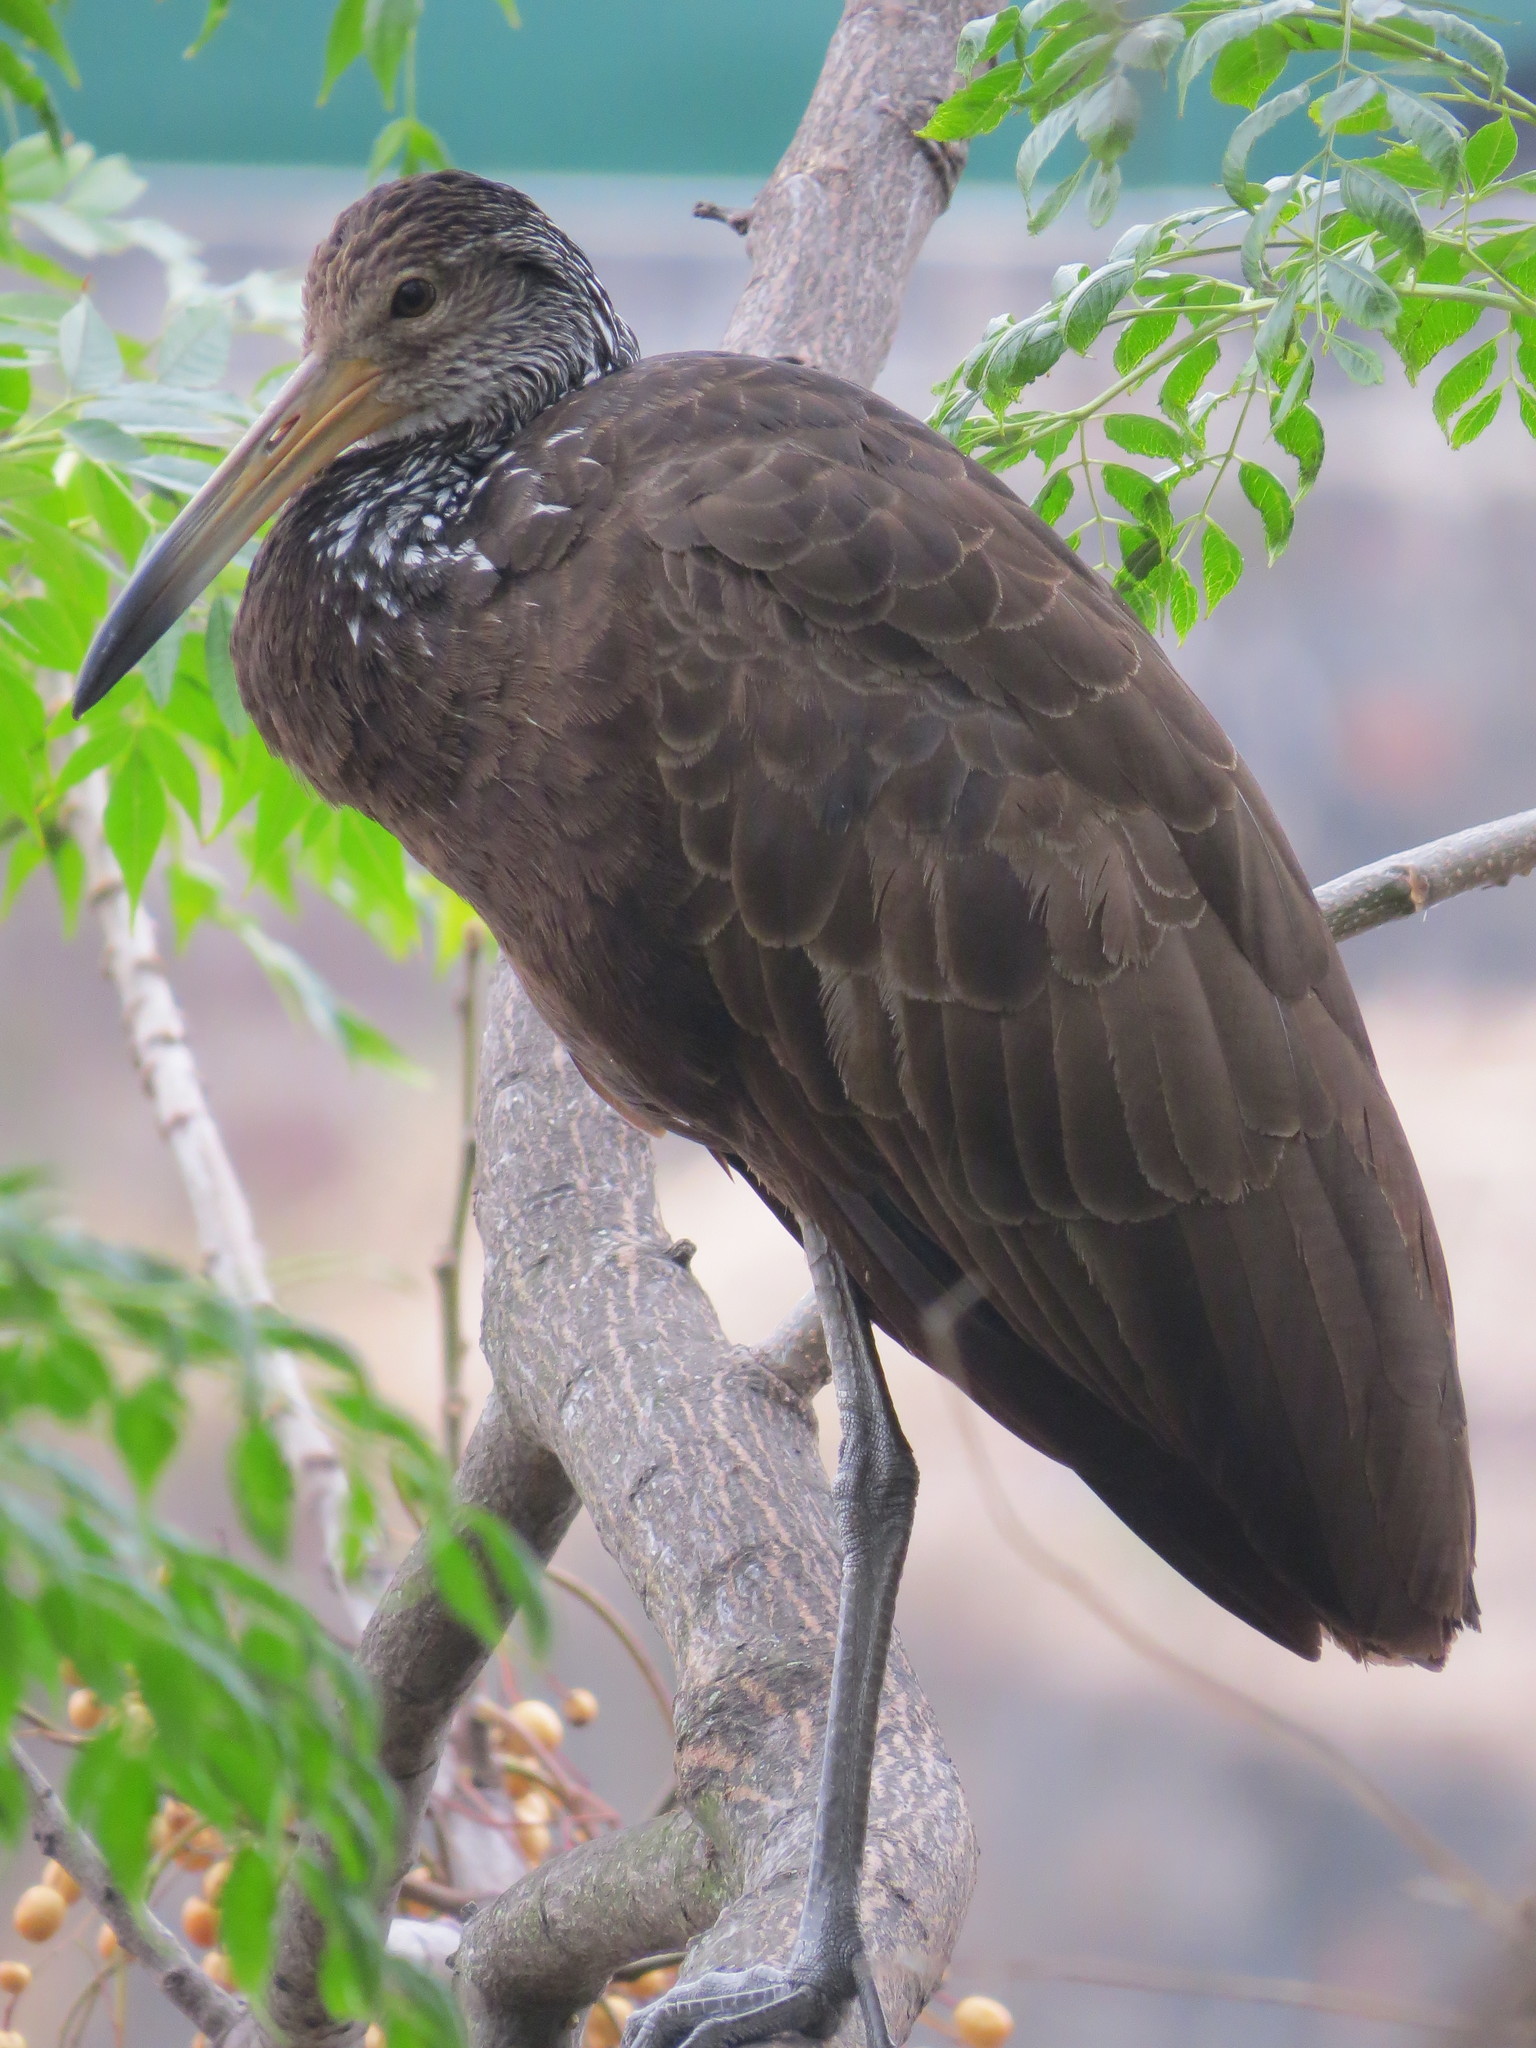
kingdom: Animalia
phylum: Chordata
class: Aves
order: Gruiformes
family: Aramidae
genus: Aramus
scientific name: Aramus guarauna
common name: Limpkin
